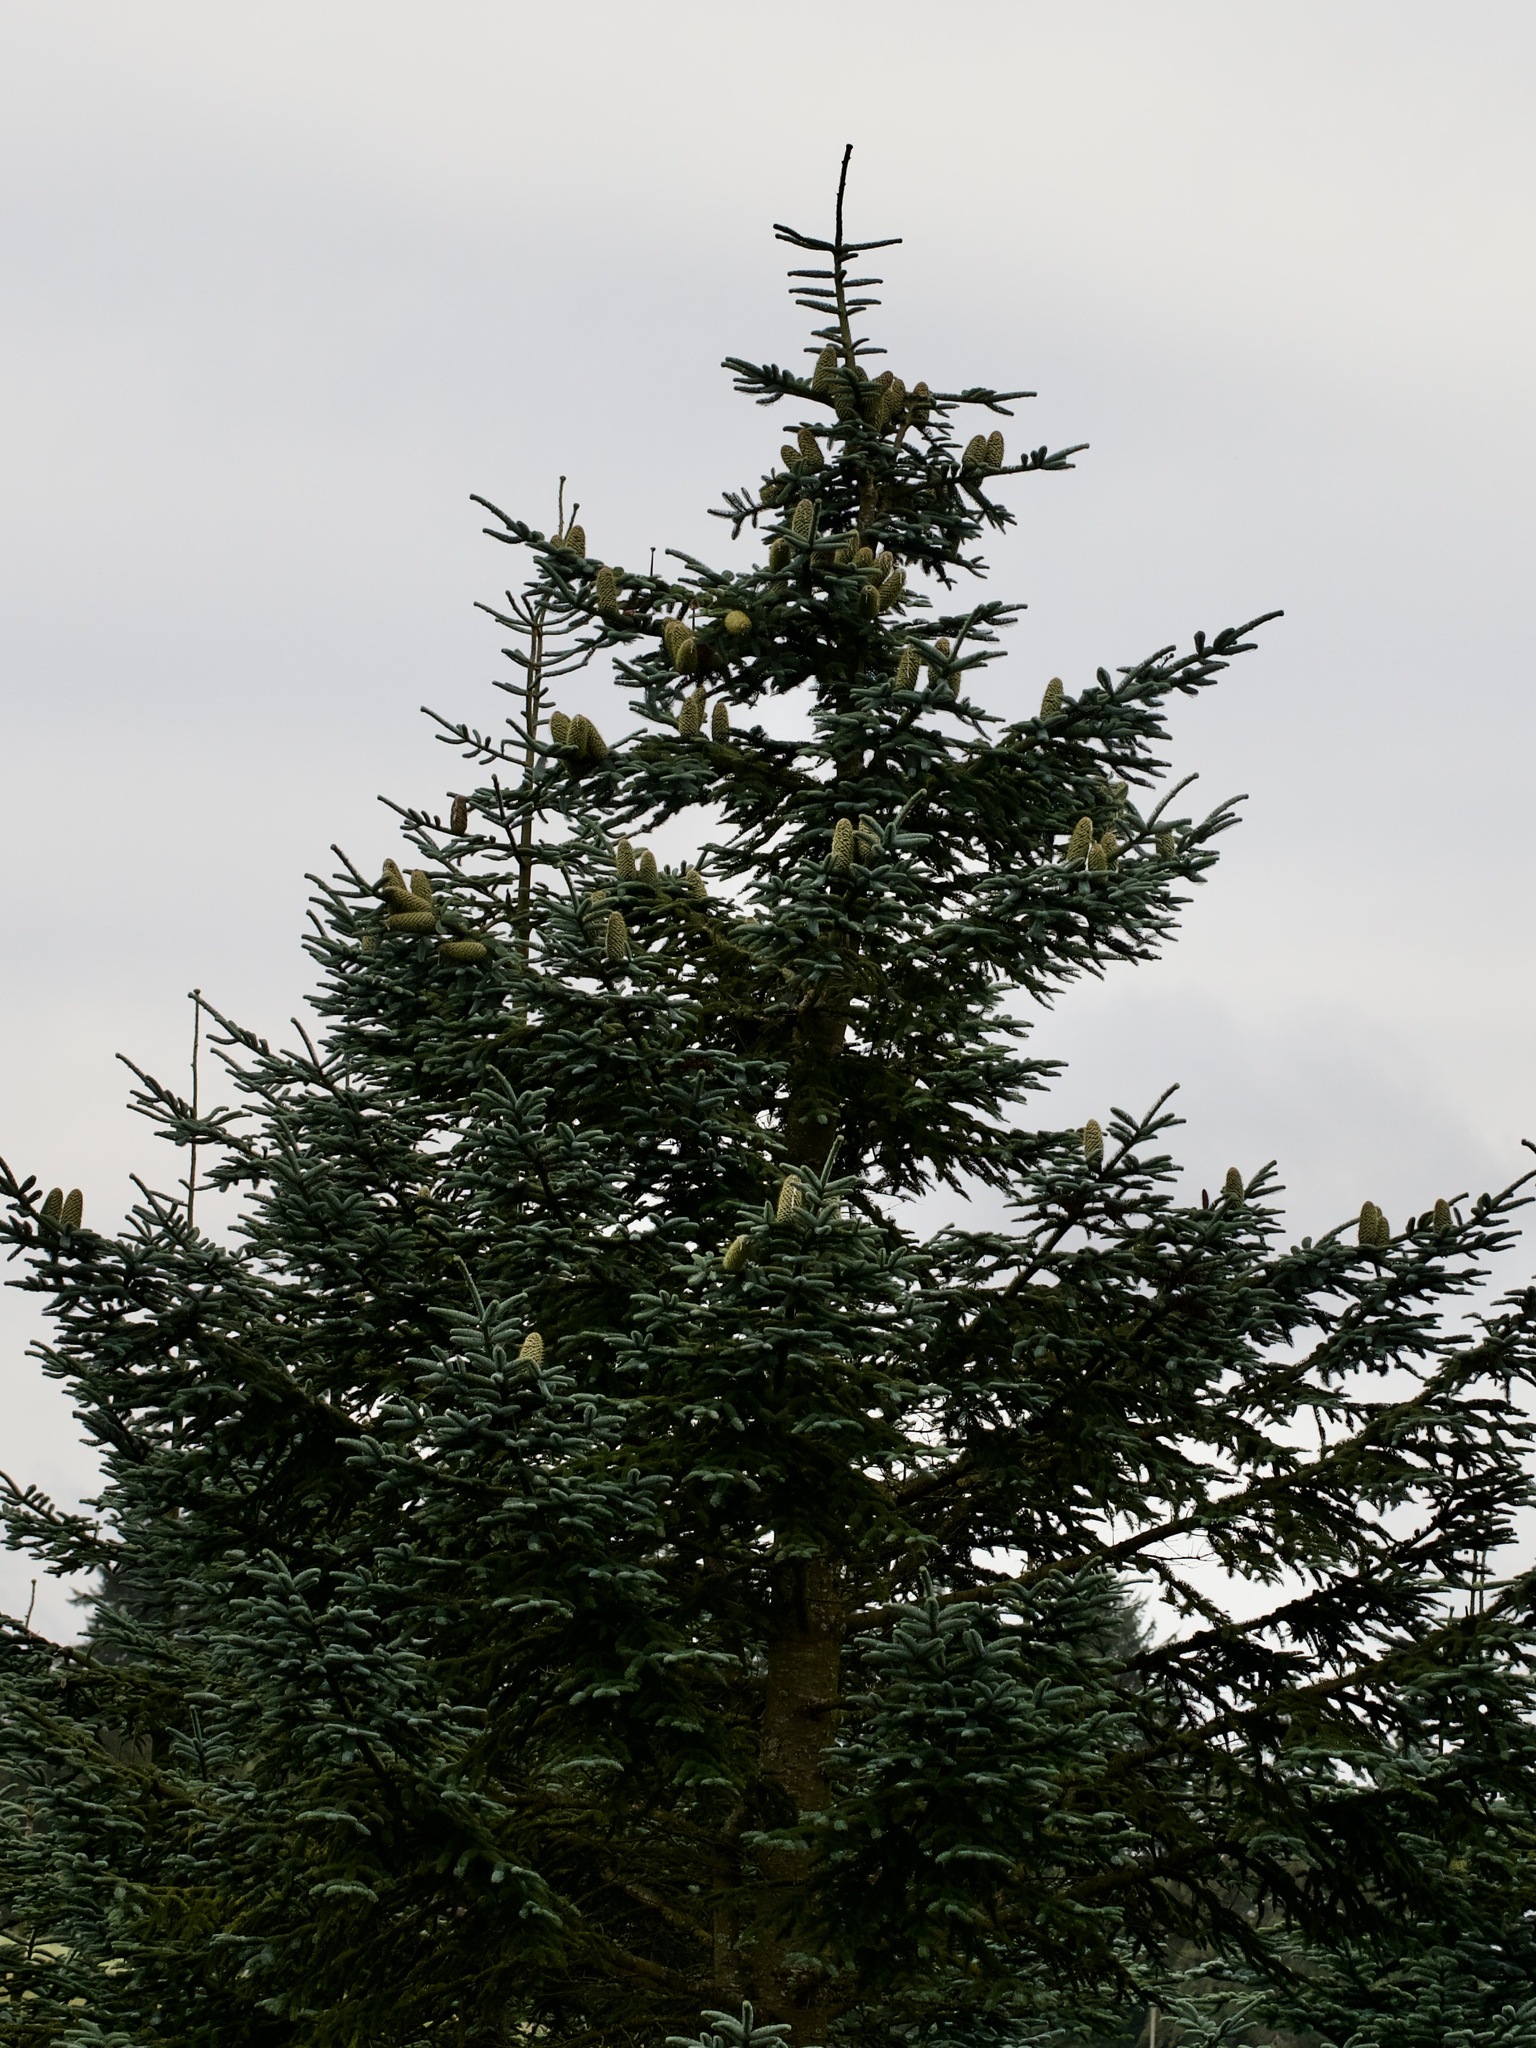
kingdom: Plantae
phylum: Tracheophyta
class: Pinopsida
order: Pinales
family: Pinaceae
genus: Abies
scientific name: Abies procera
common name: Noble fir
